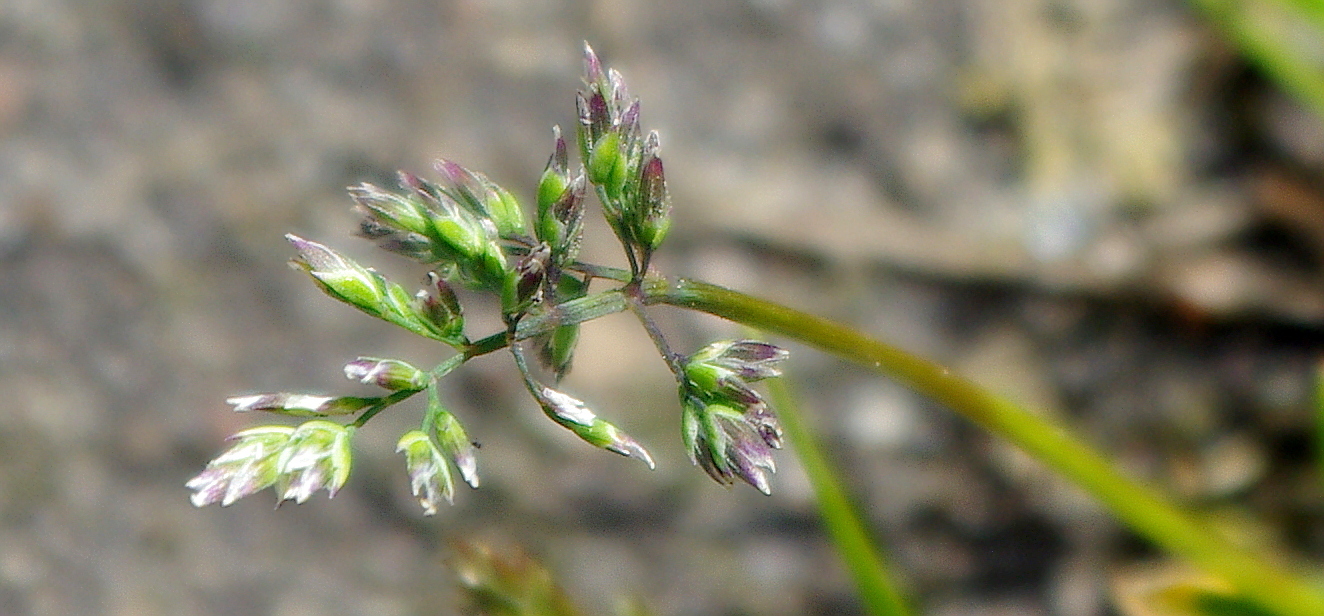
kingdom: Plantae
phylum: Tracheophyta
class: Liliopsida
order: Poales
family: Poaceae
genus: Poa
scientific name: Poa annua
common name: Annual bluegrass
